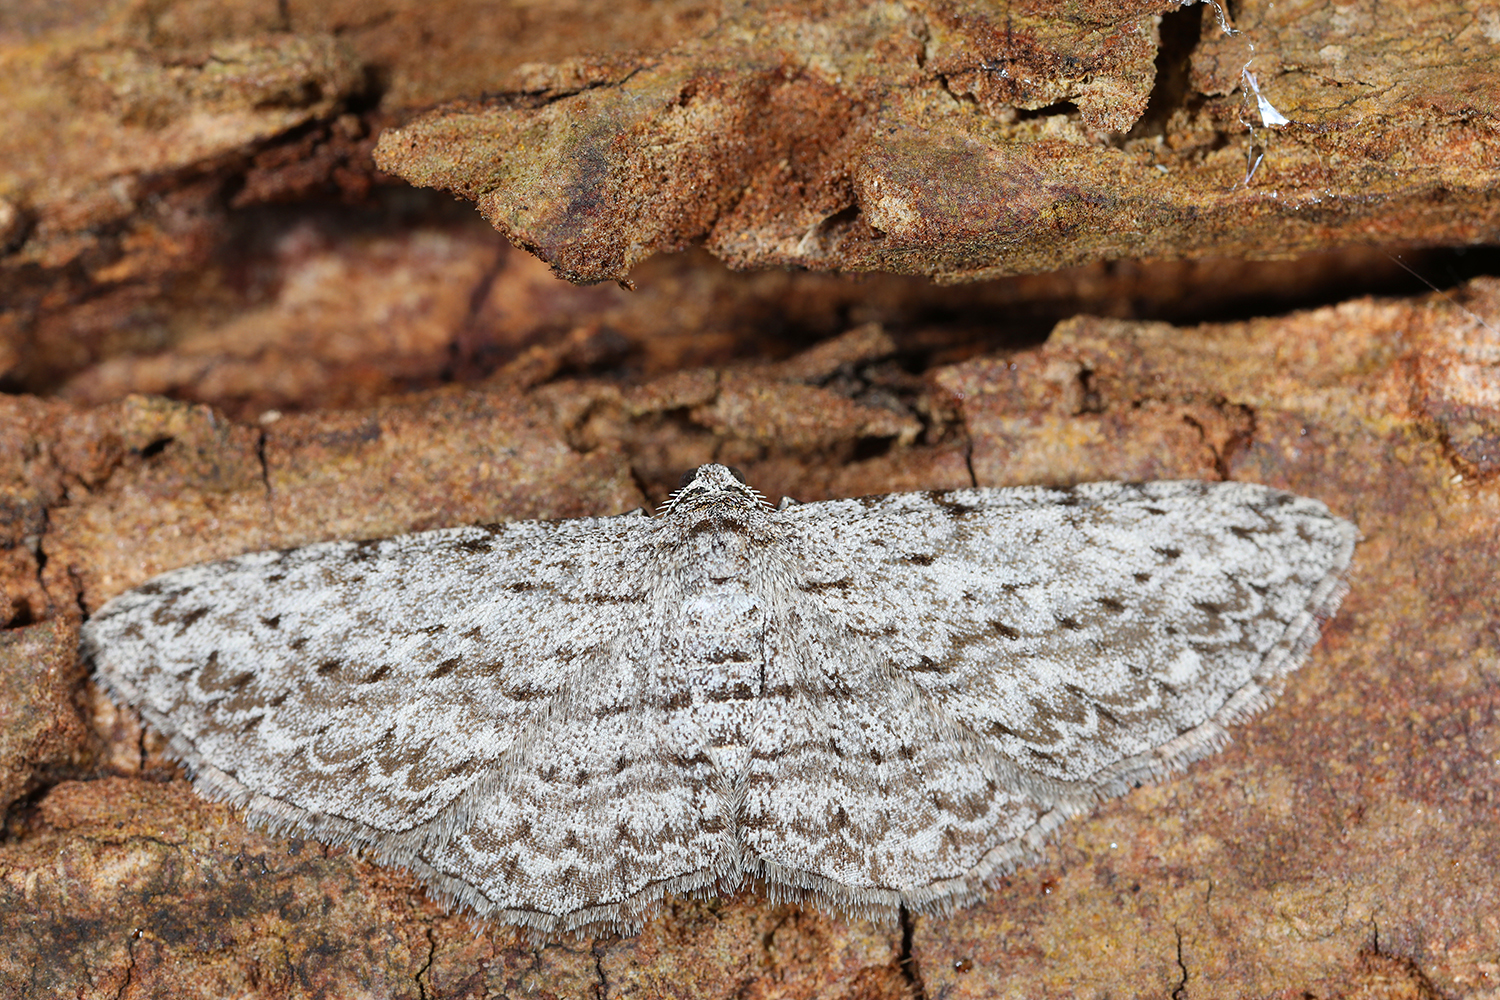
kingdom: Animalia
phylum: Arthropoda
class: Insecta
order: Lepidoptera
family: Geometridae
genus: Phelotis
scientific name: Phelotis cognata
